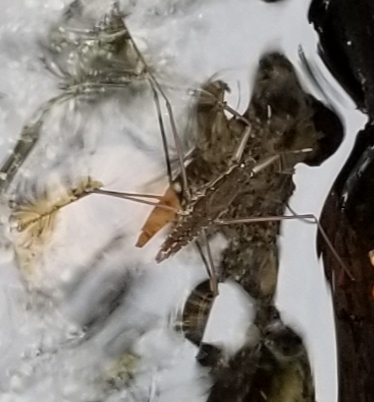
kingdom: Animalia
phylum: Arthropoda
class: Insecta
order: Hemiptera
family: Gerridae
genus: Aquarius
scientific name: Aquarius remigis
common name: Common water strider
